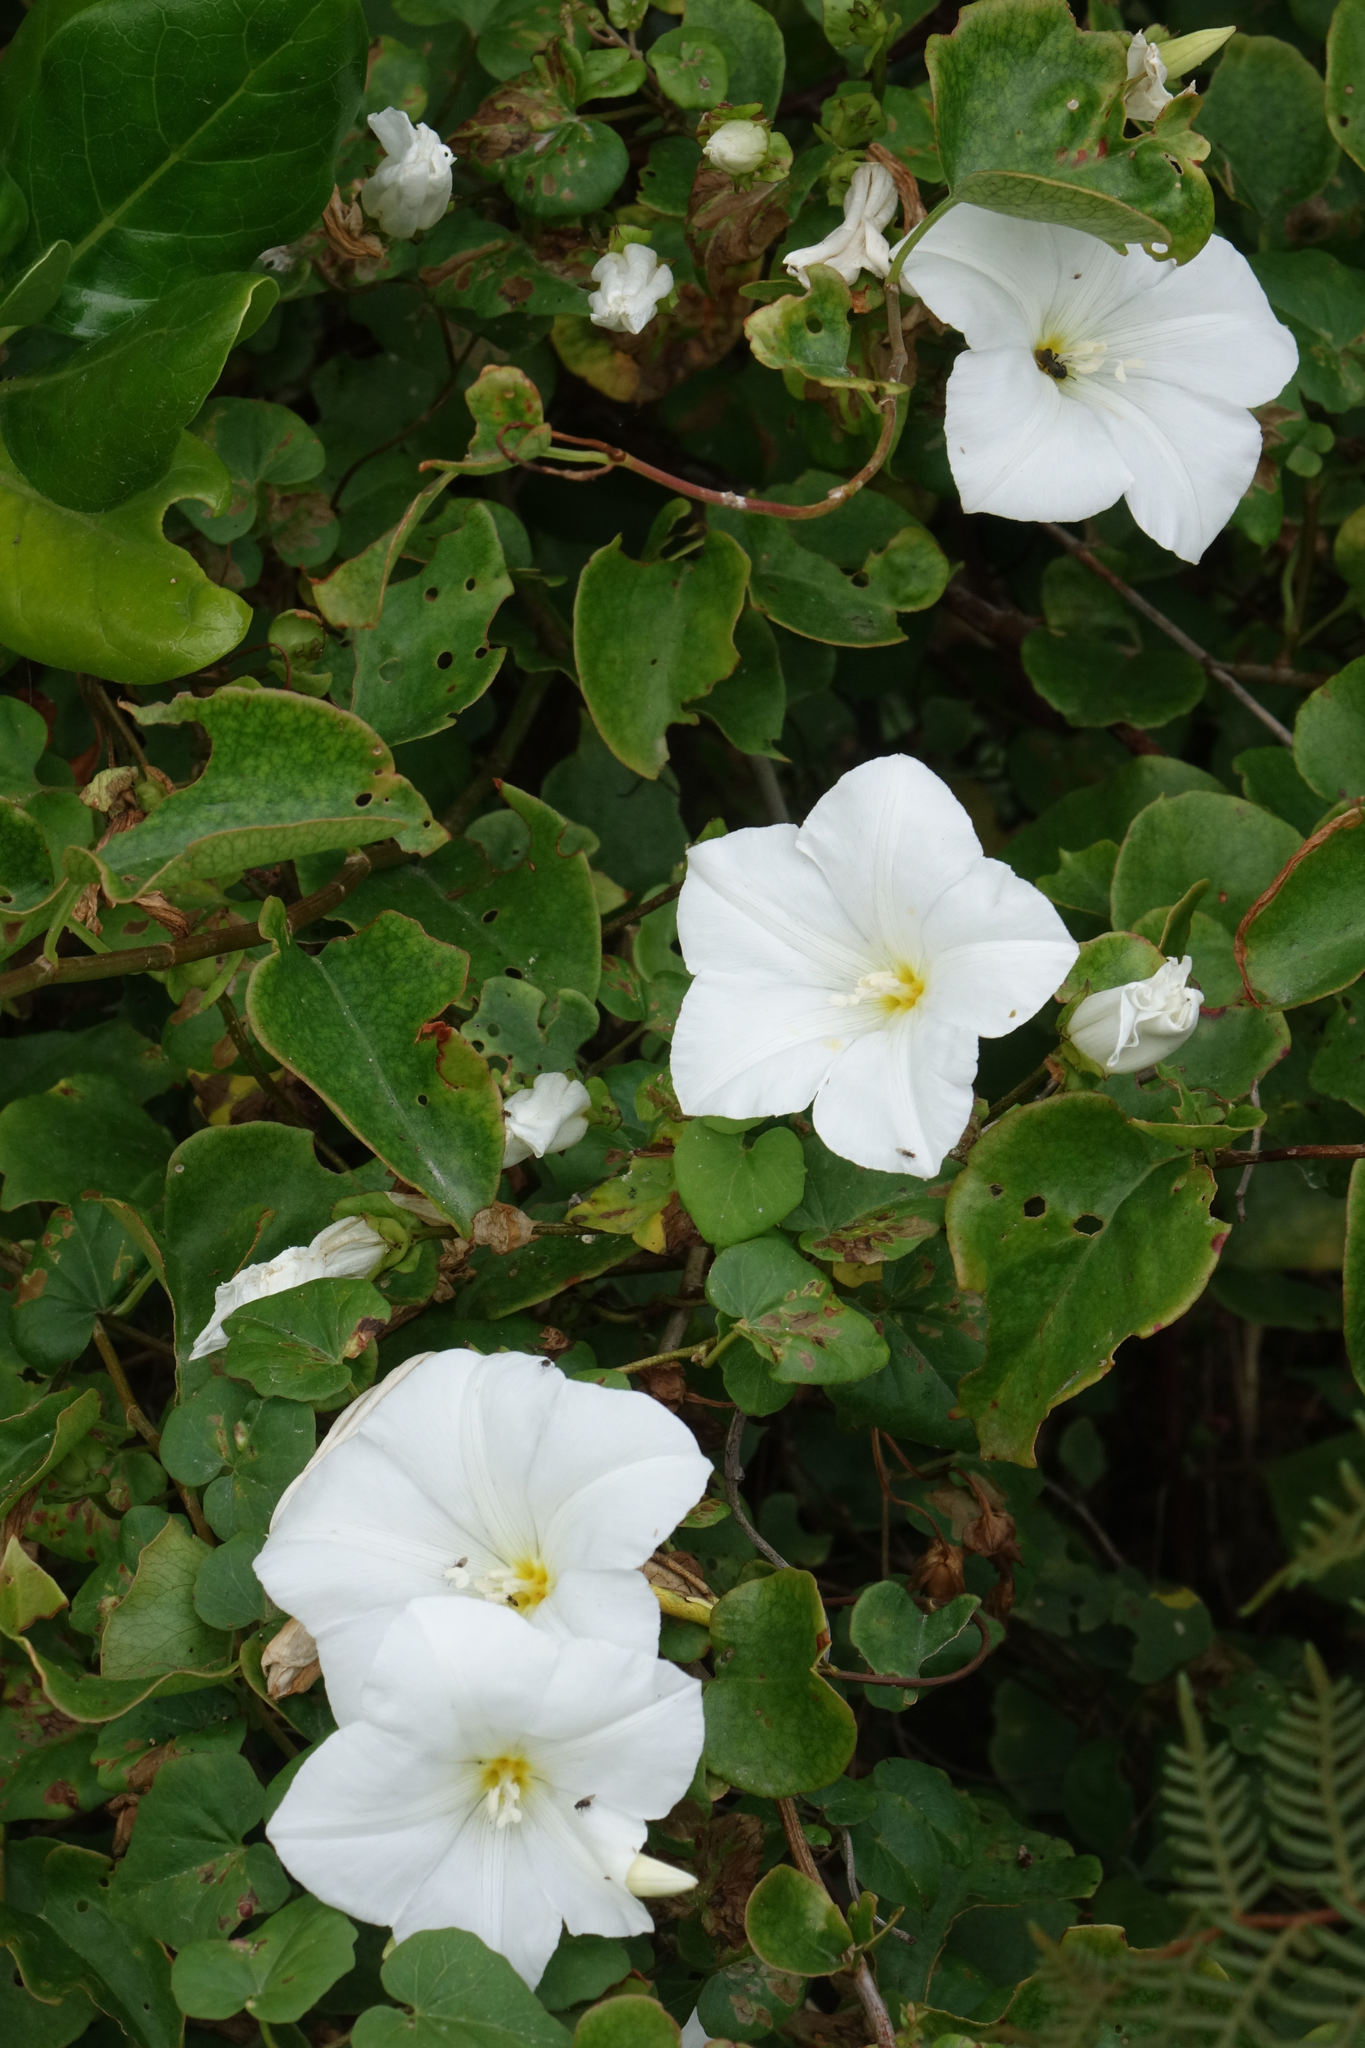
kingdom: Plantae
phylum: Tracheophyta
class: Magnoliopsida
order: Solanales
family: Convolvulaceae
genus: Calystegia
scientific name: Calystegia tuguriorum
